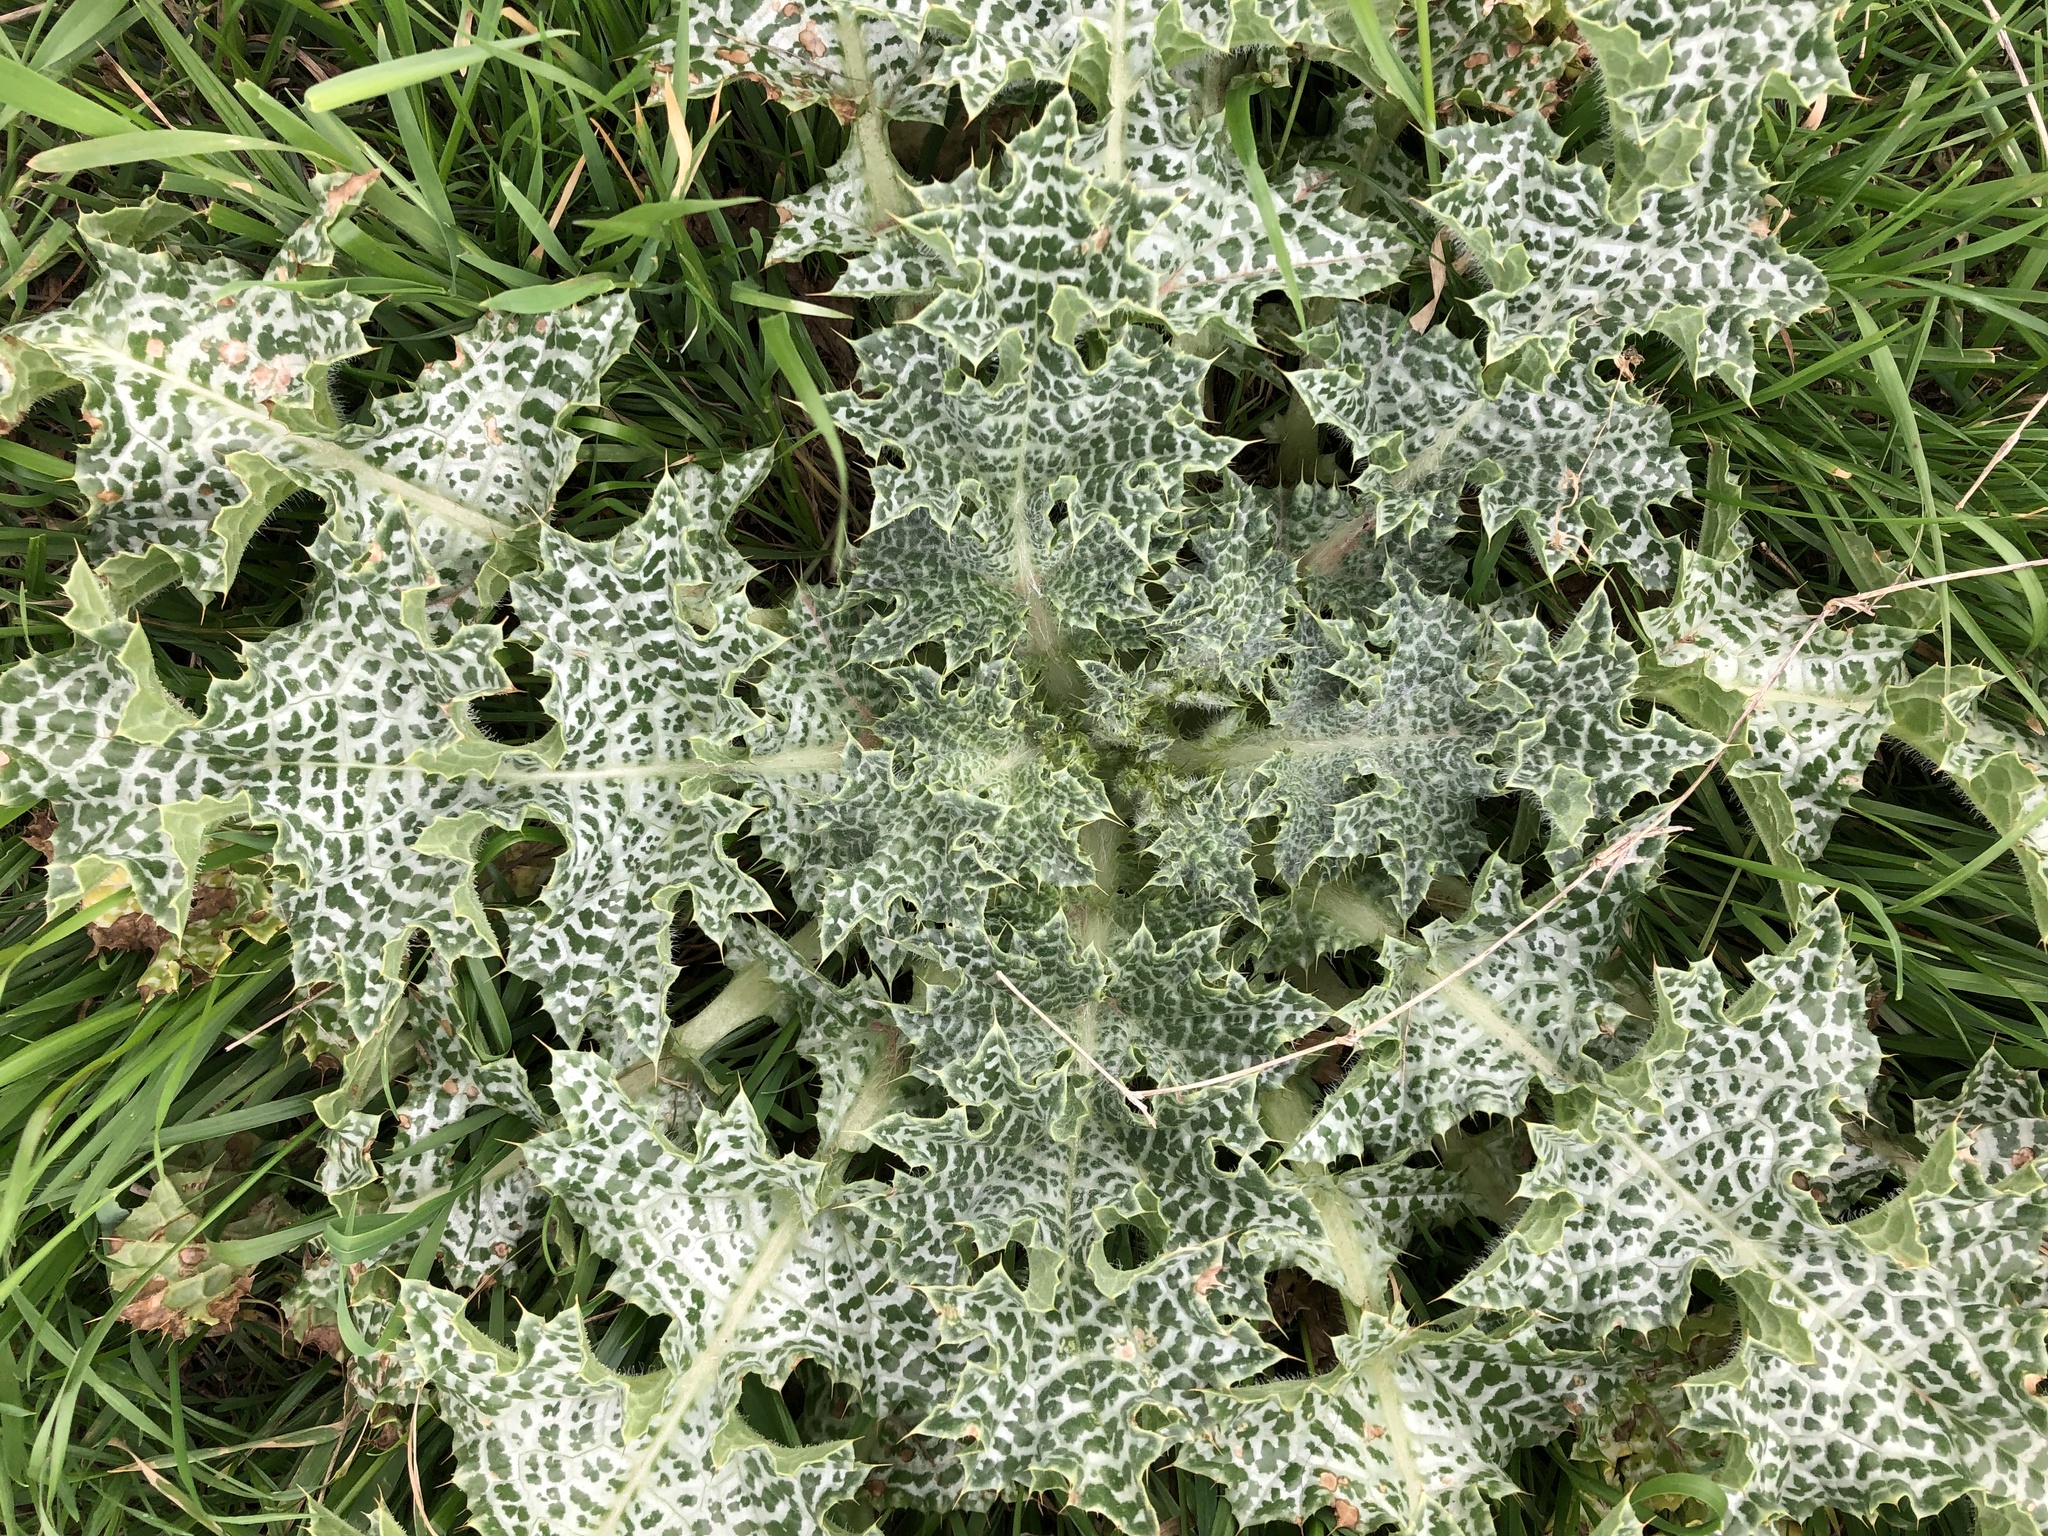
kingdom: Plantae
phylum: Tracheophyta
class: Magnoliopsida
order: Asterales
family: Asteraceae
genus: Silybum
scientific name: Silybum marianum
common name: Milk thistle
